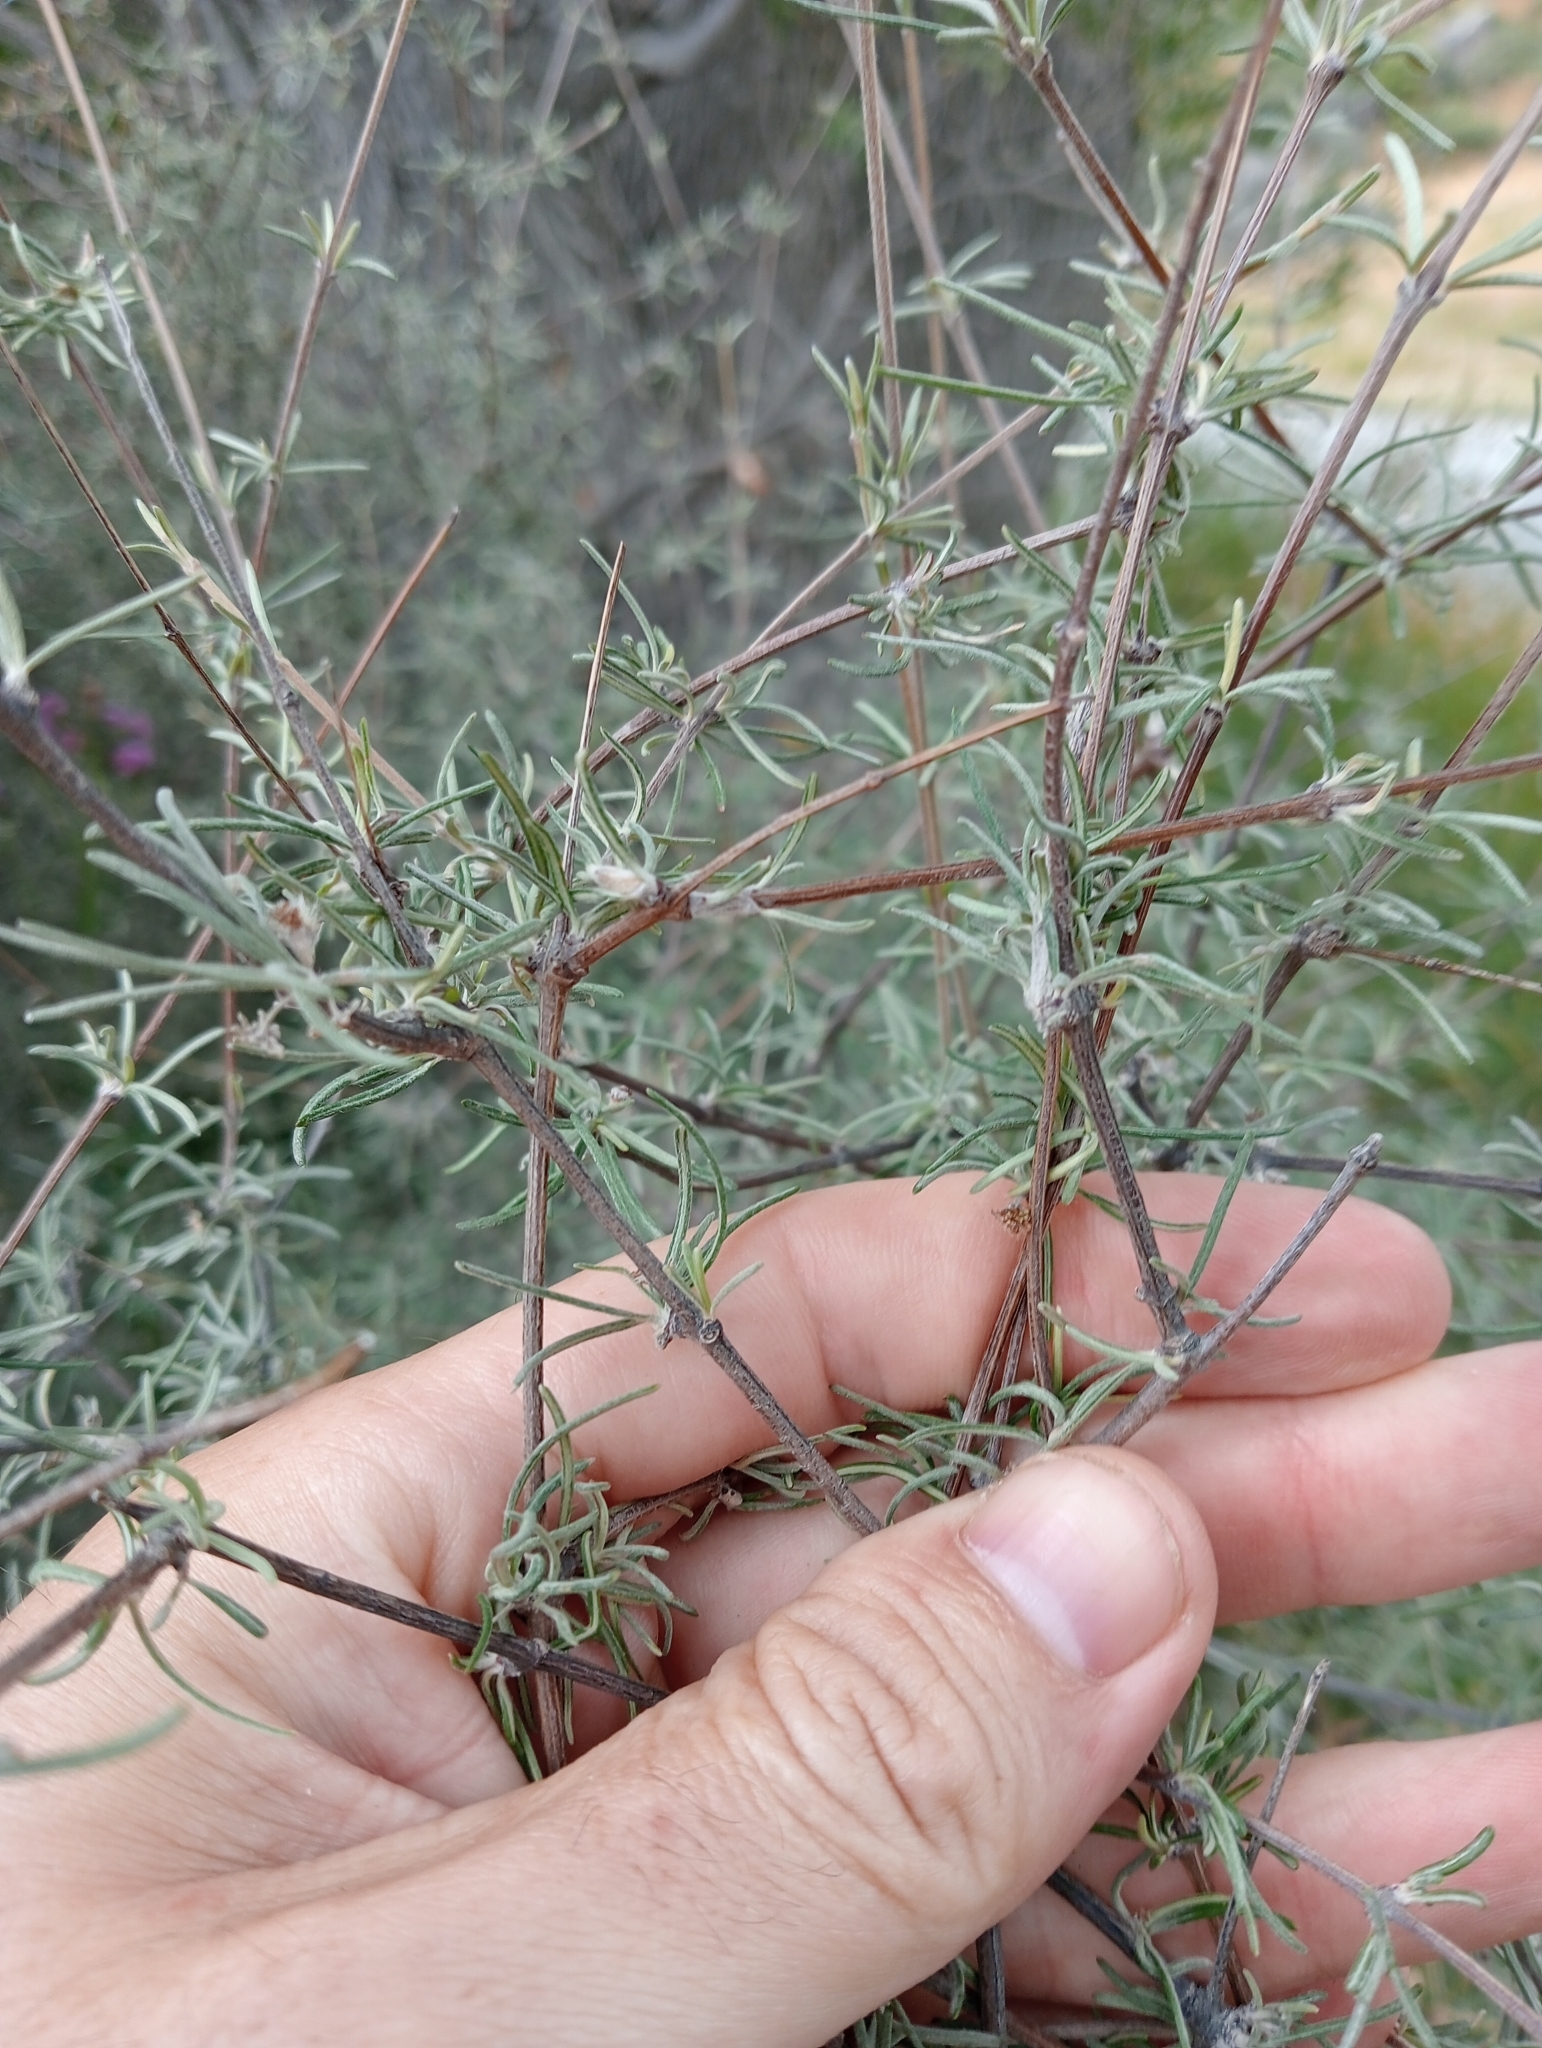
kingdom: Plantae
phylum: Tracheophyta
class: Magnoliopsida
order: Asterales
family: Asteraceae
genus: Olearia
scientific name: Olearia lineata
